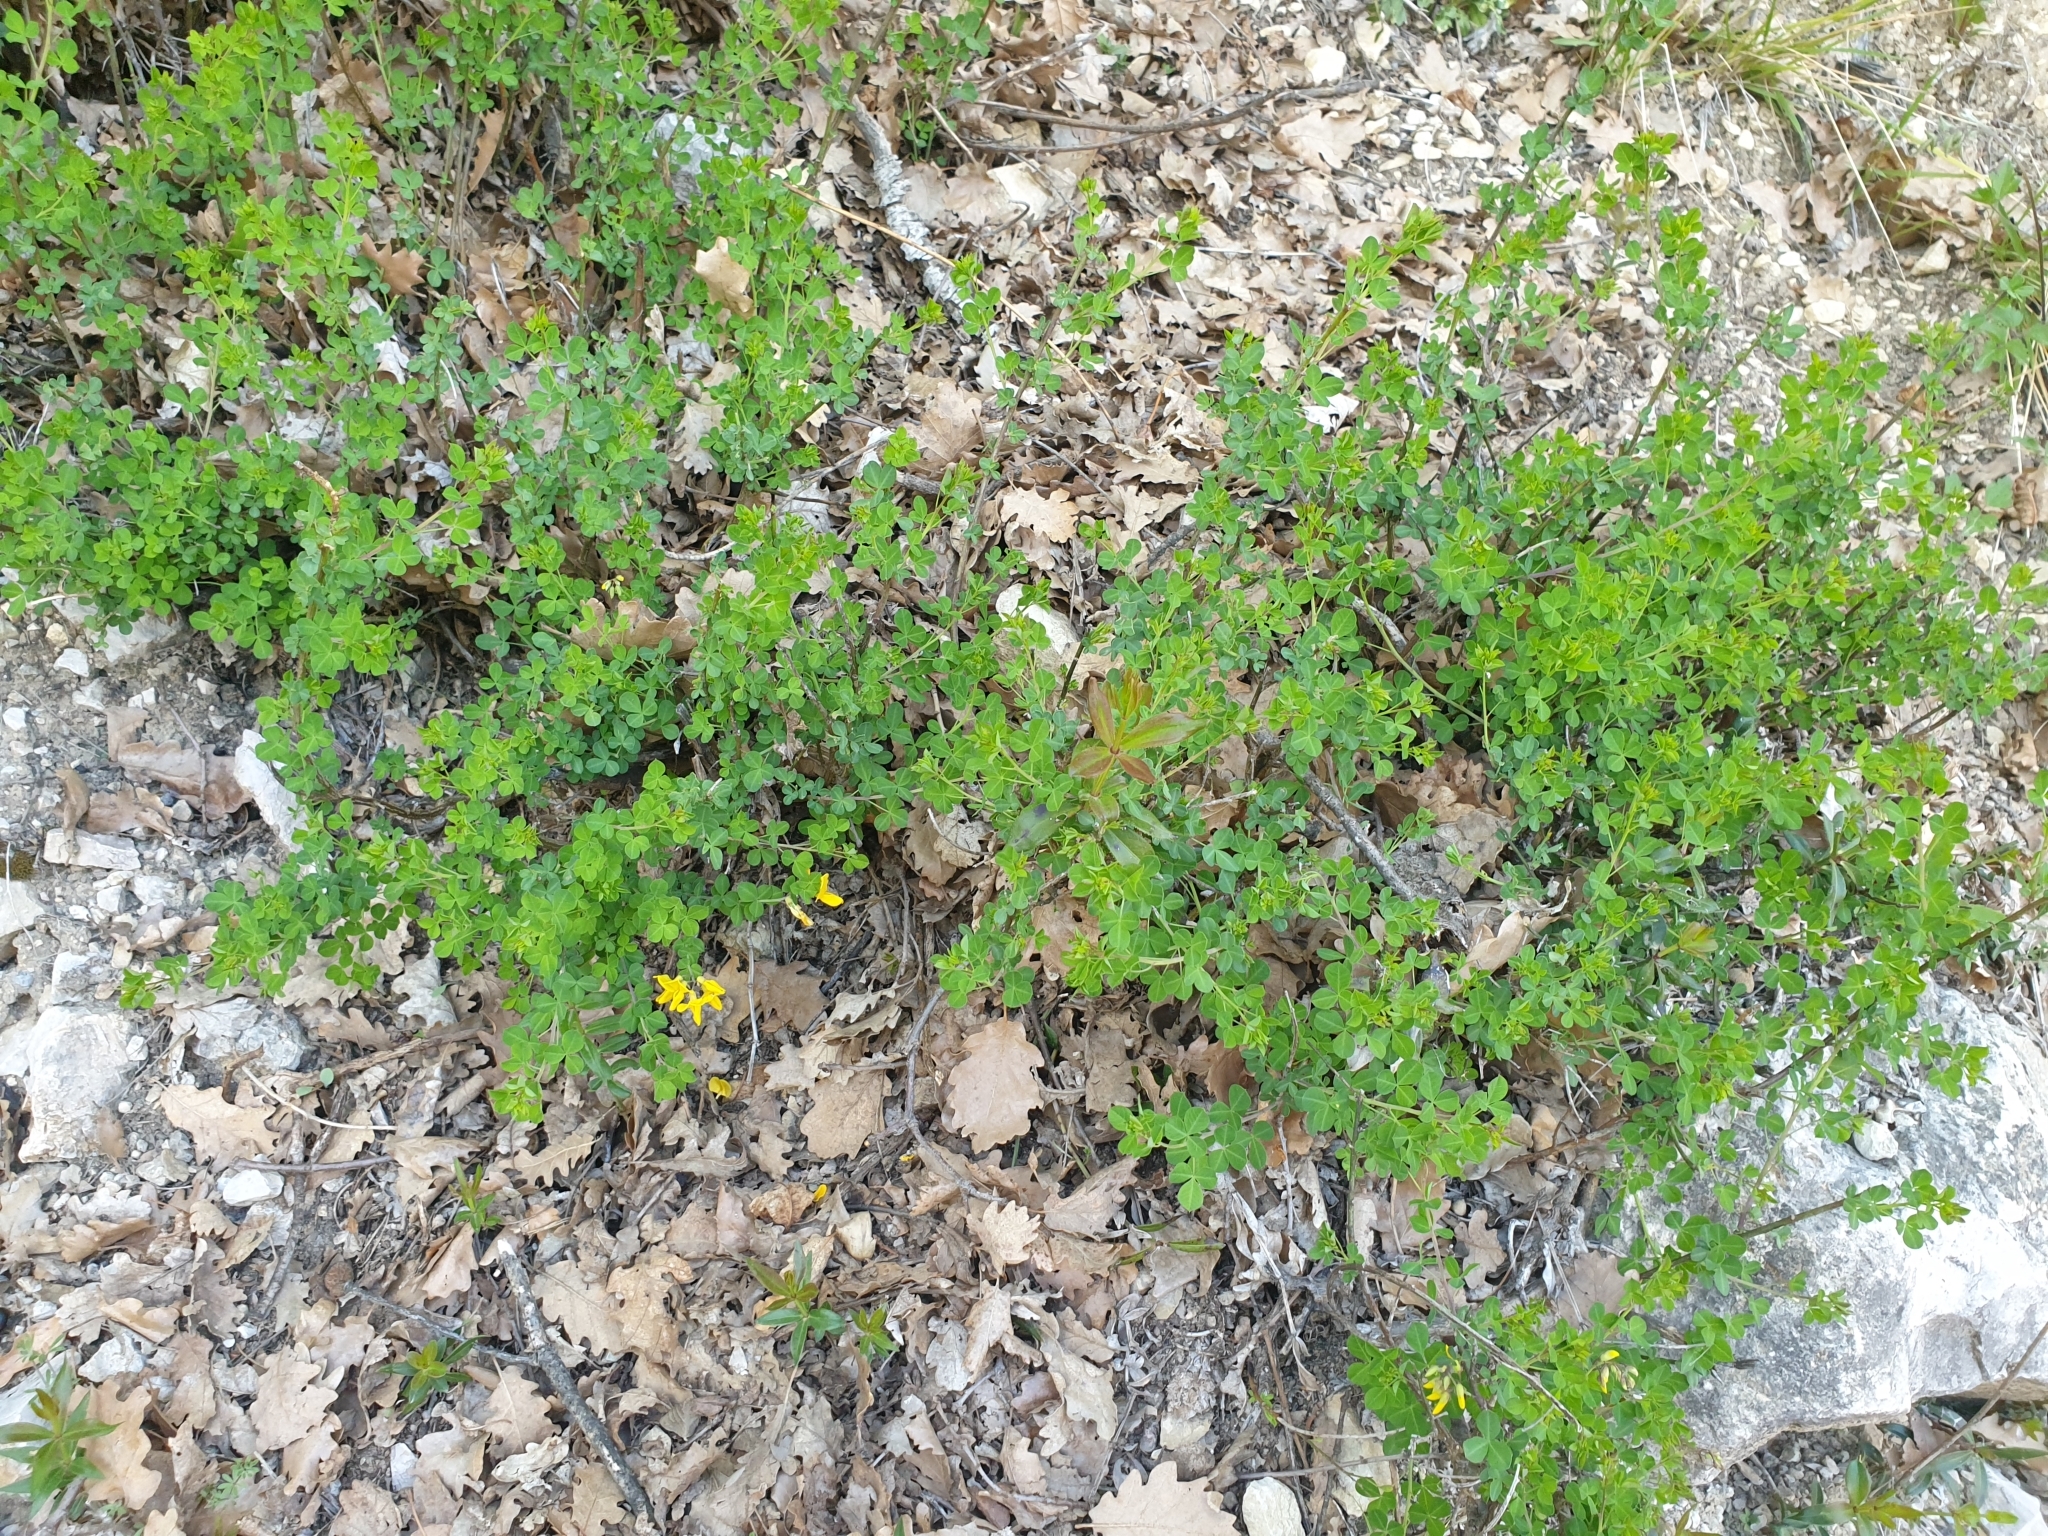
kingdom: Plantae
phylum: Tracheophyta
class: Magnoliopsida
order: Fabales
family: Fabaceae
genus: Cytisophyllum
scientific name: Cytisophyllum sessilifolium
